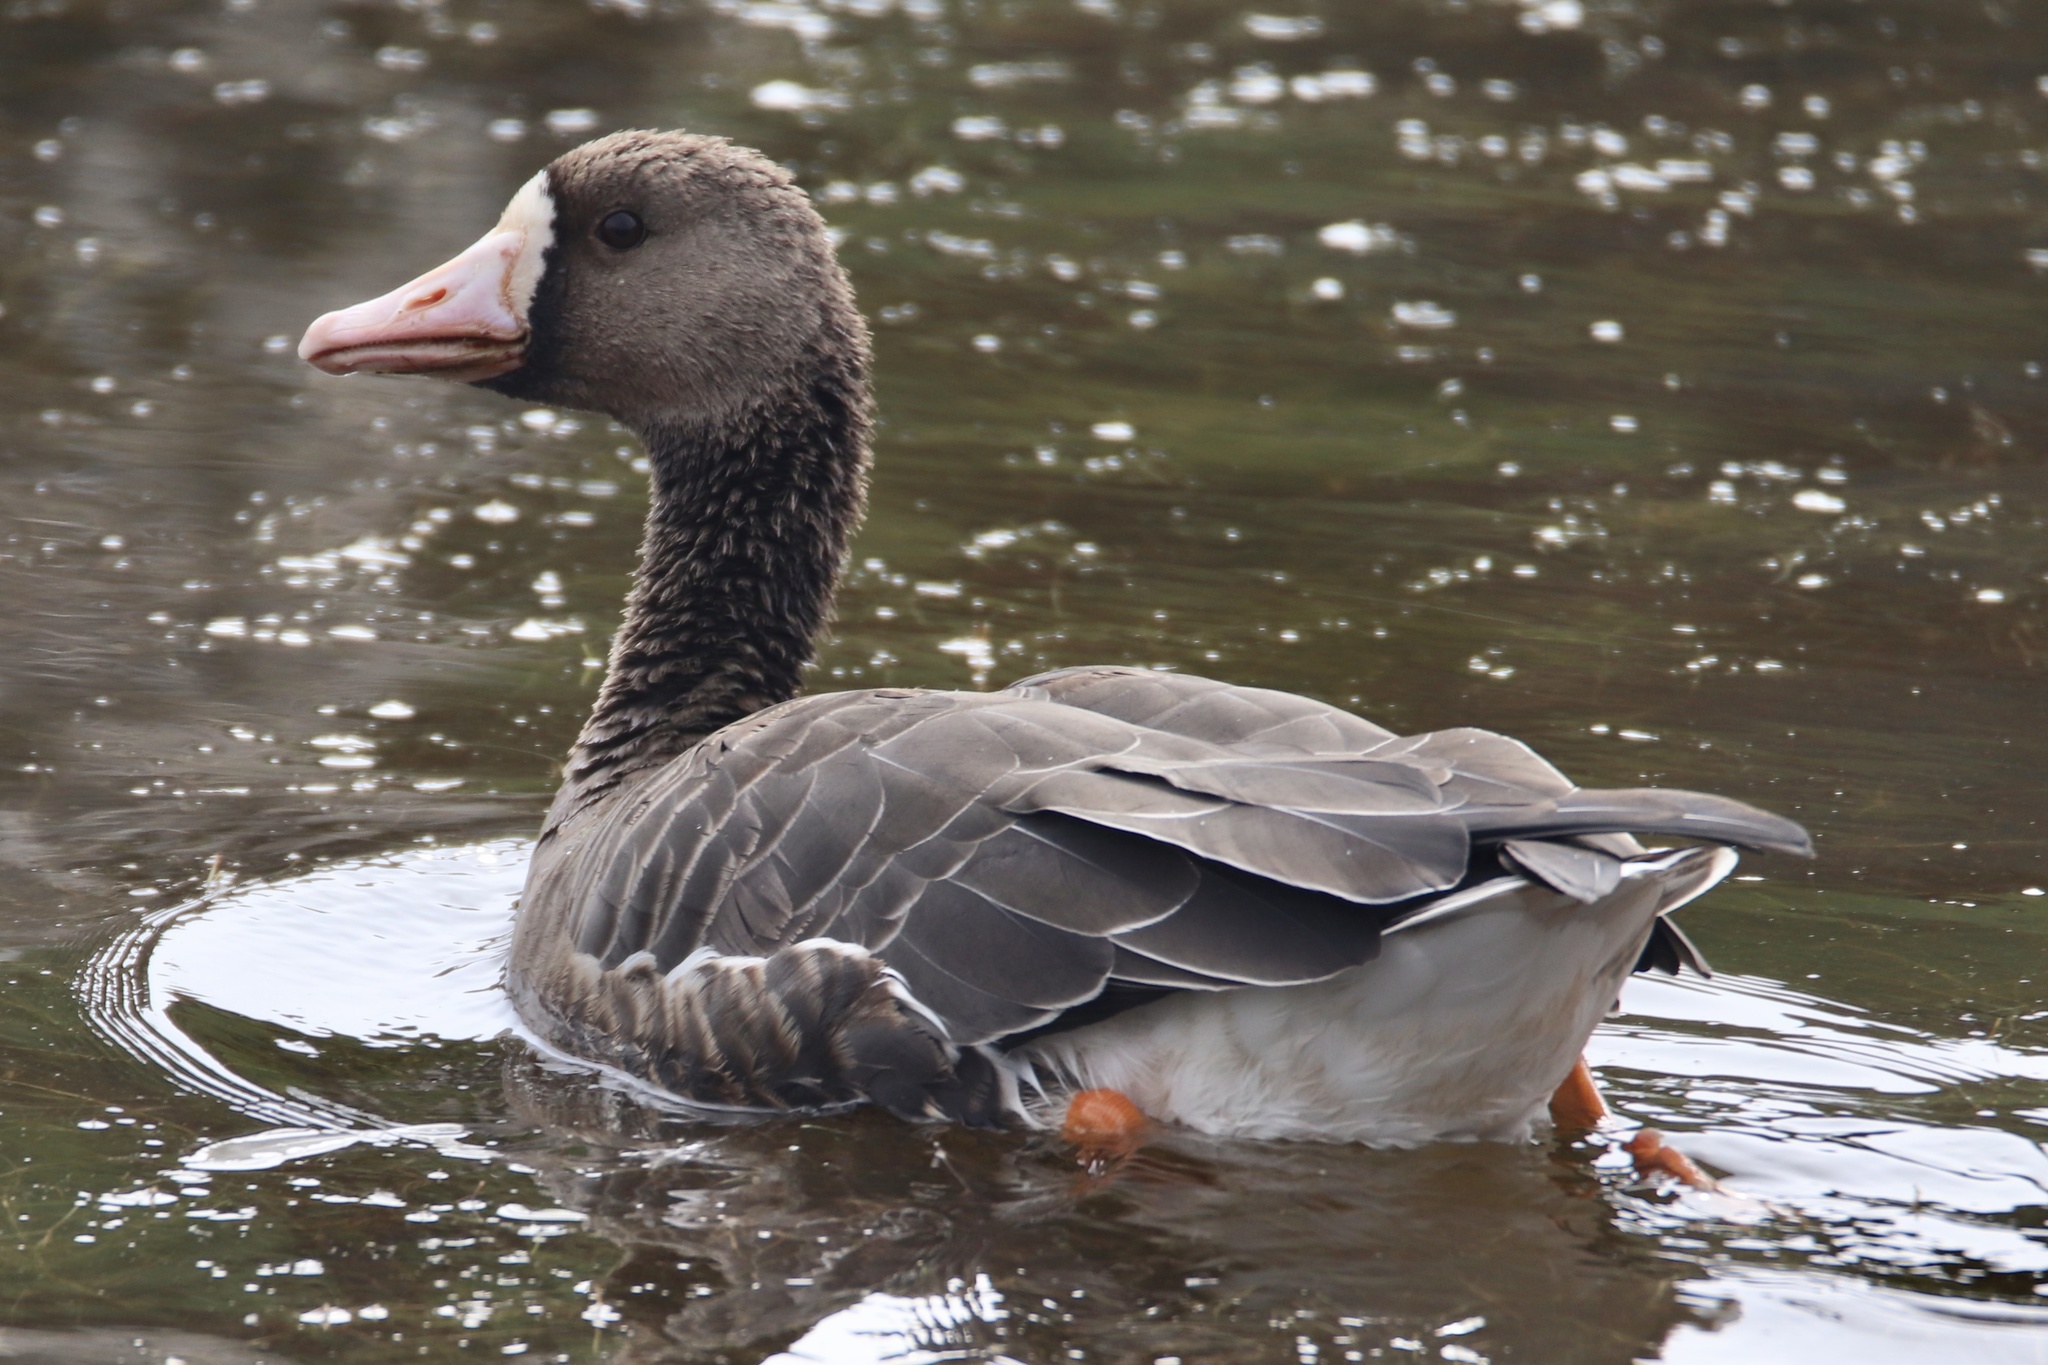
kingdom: Animalia
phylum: Chordata
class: Aves
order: Anseriformes
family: Anatidae
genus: Anser
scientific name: Anser albifrons
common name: Greater white-fronted goose
